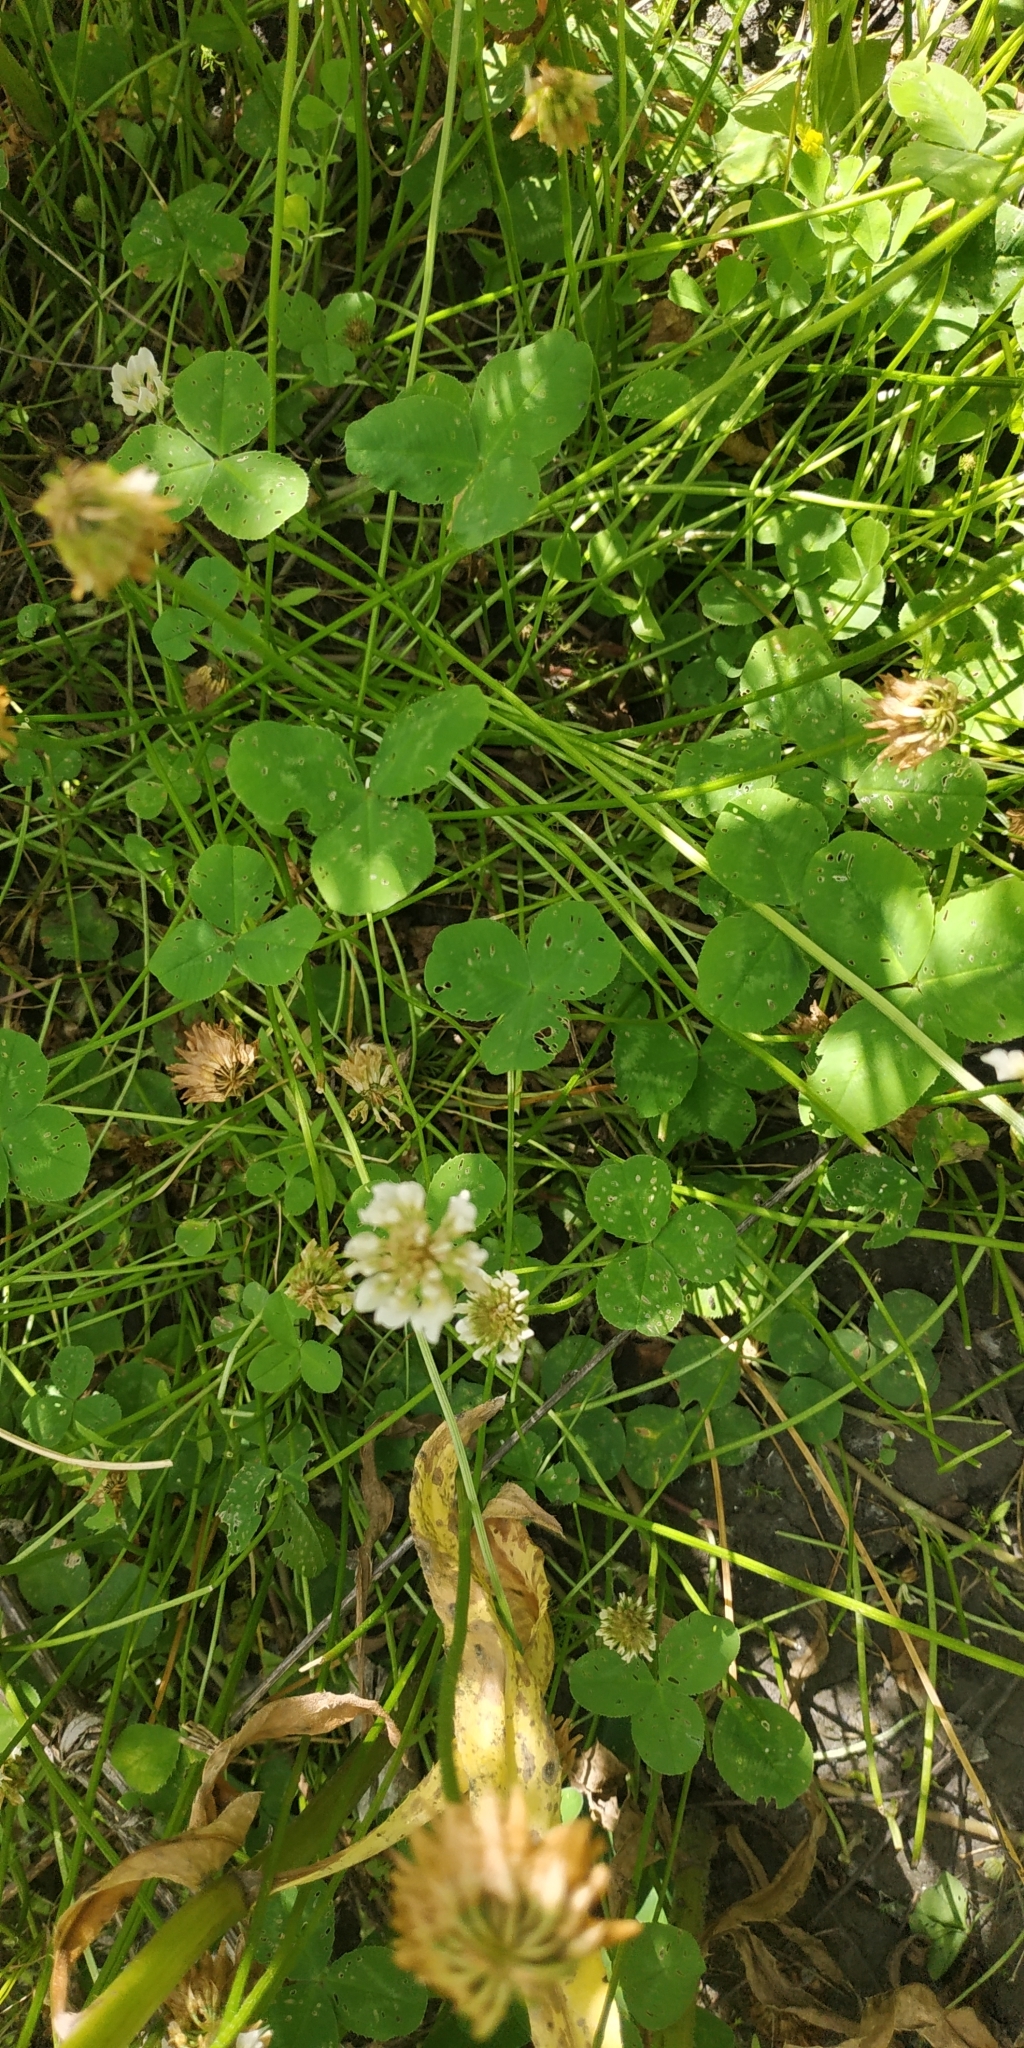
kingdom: Plantae
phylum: Tracheophyta
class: Magnoliopsida
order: Fabales
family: Fabaceae
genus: Trifolium
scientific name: Trifolium repens
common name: White clover
